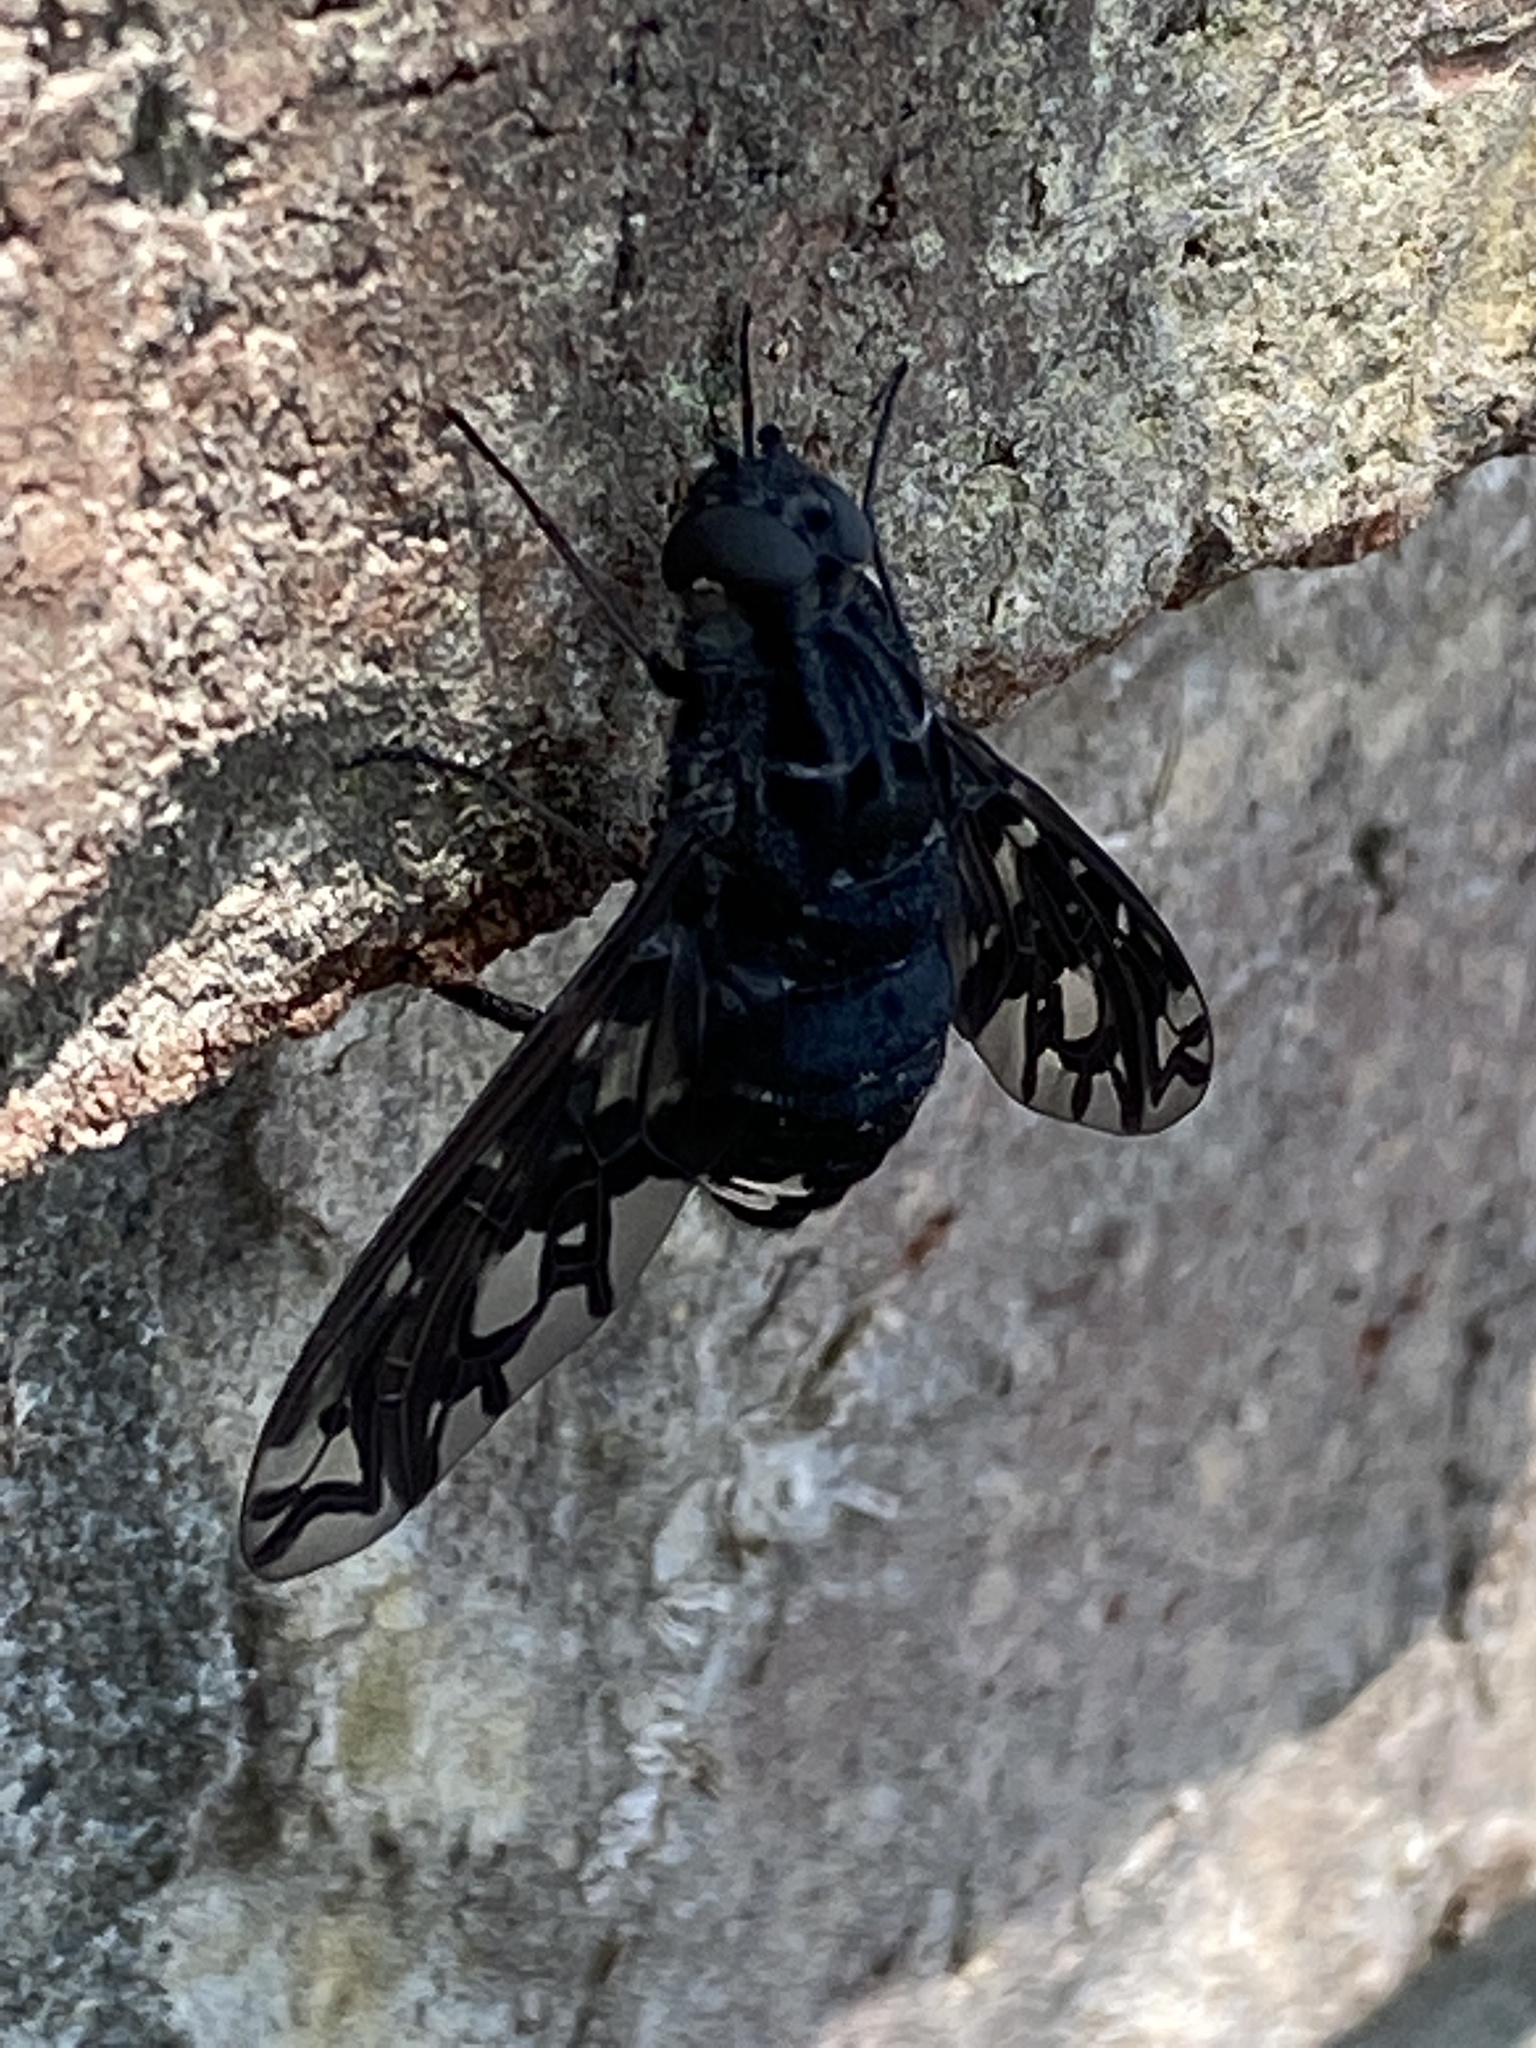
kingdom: Animalia
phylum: Arthropoda
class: Insecta
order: Diptera
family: Bombyliidae
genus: Xenox
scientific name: Xenox tigrinus
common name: Tiger bee fly
